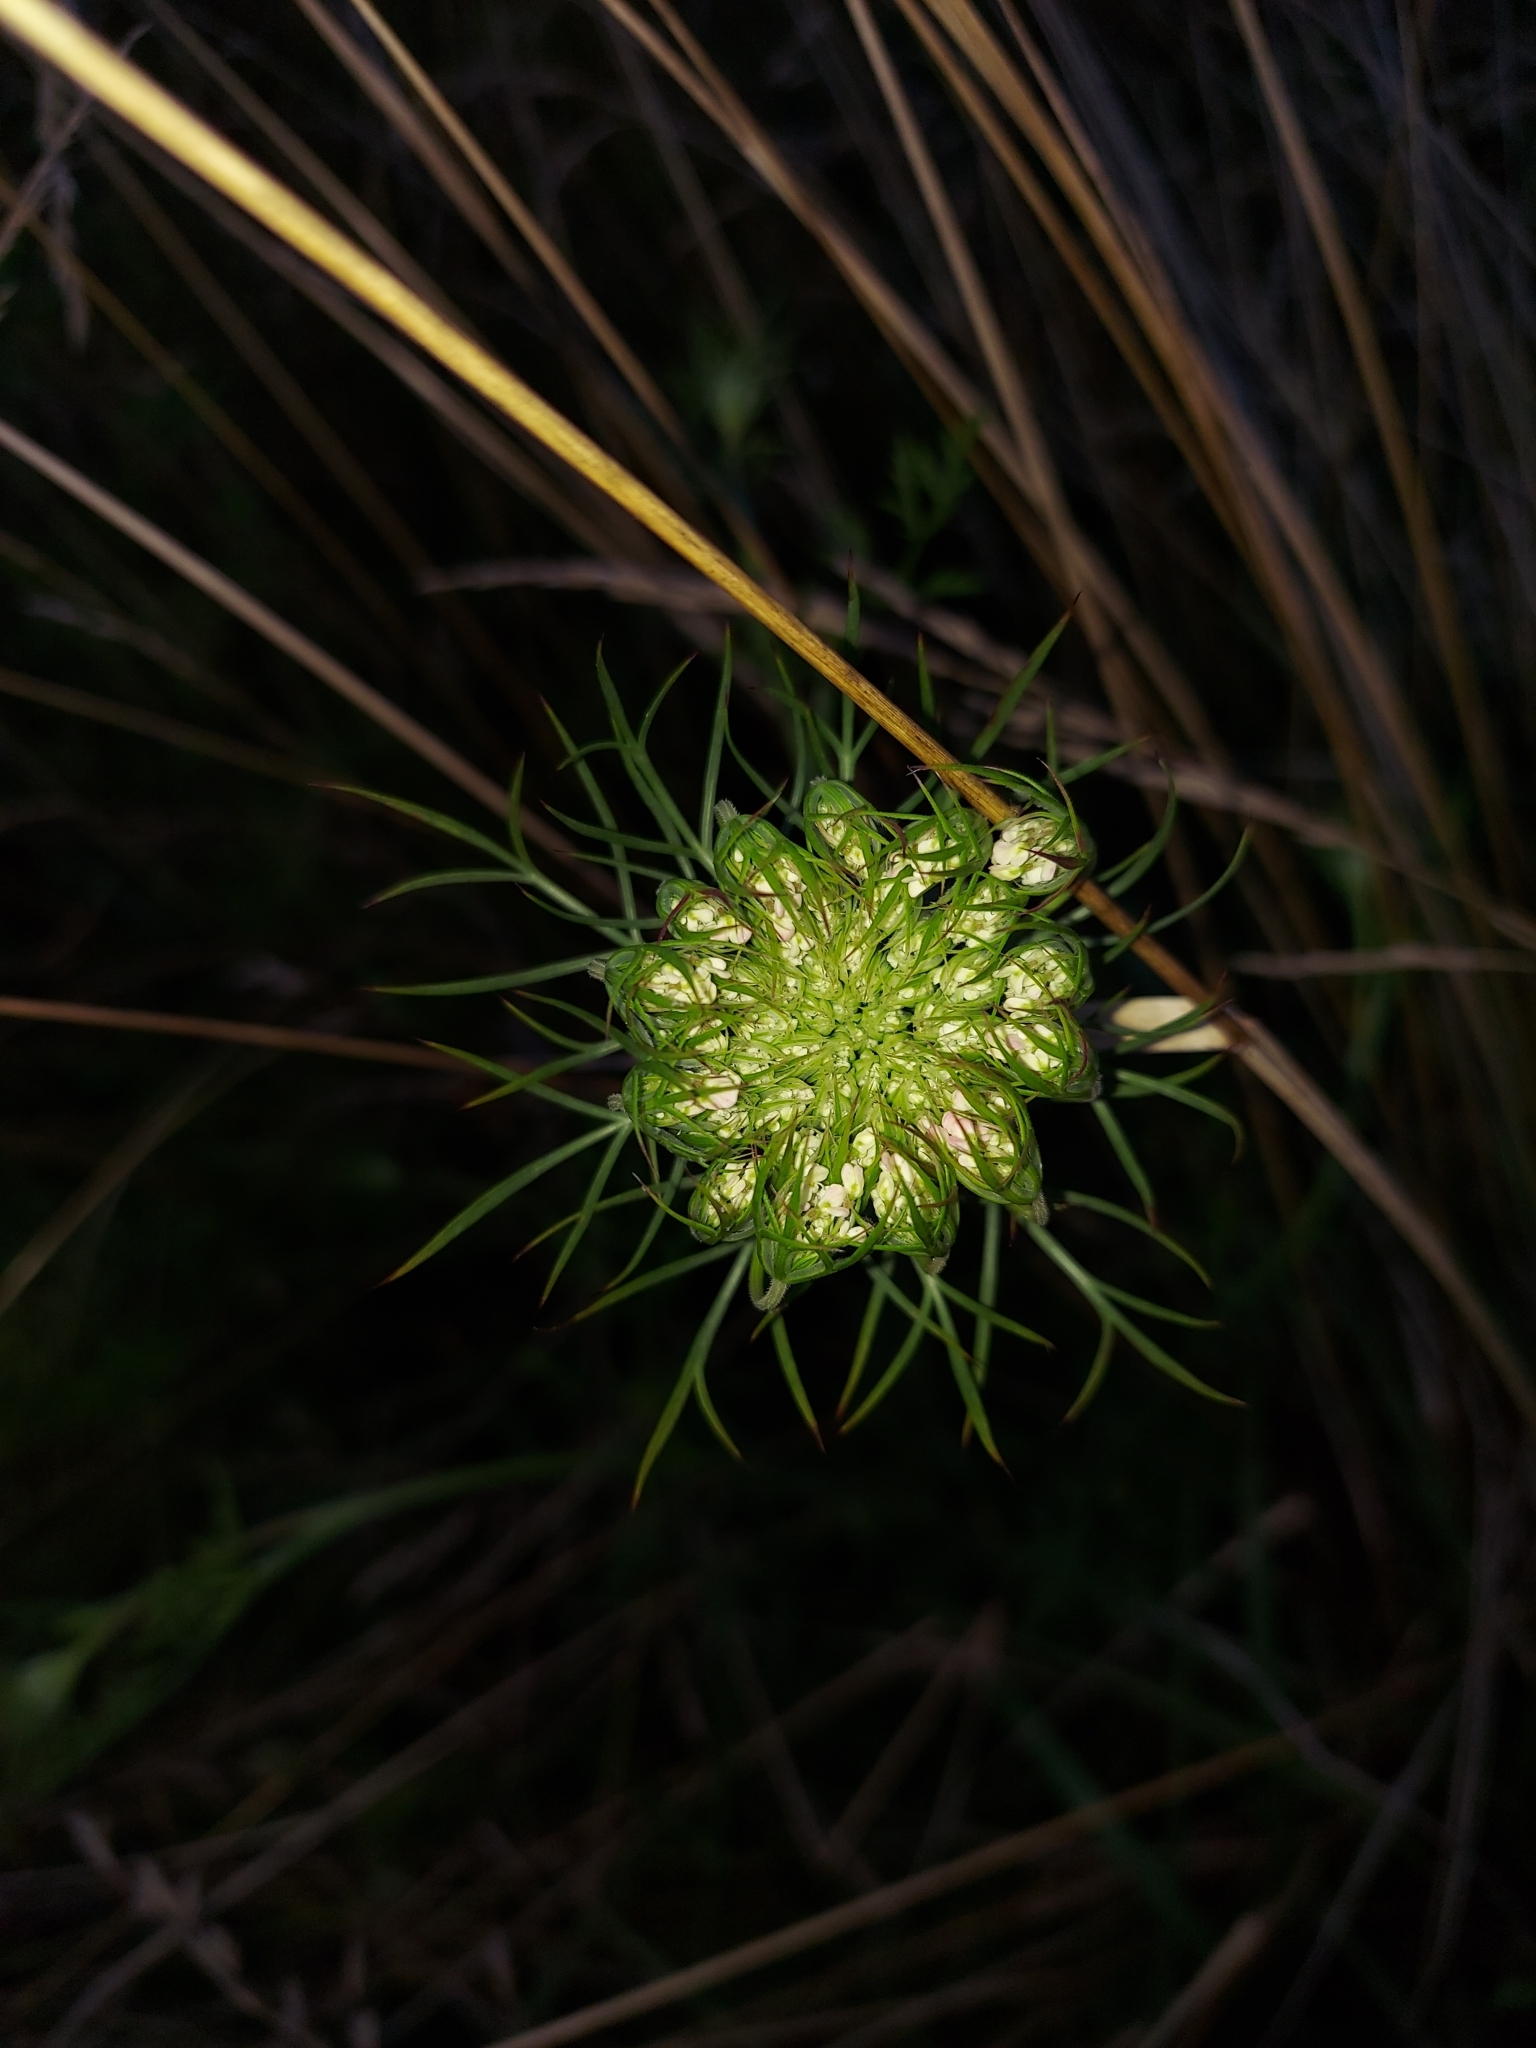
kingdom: Plantae
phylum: Tracheophyta
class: Magnoliopsida
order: Apiales
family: Apiaceae
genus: Daucus
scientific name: Daucus carota
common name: Wild carrot
